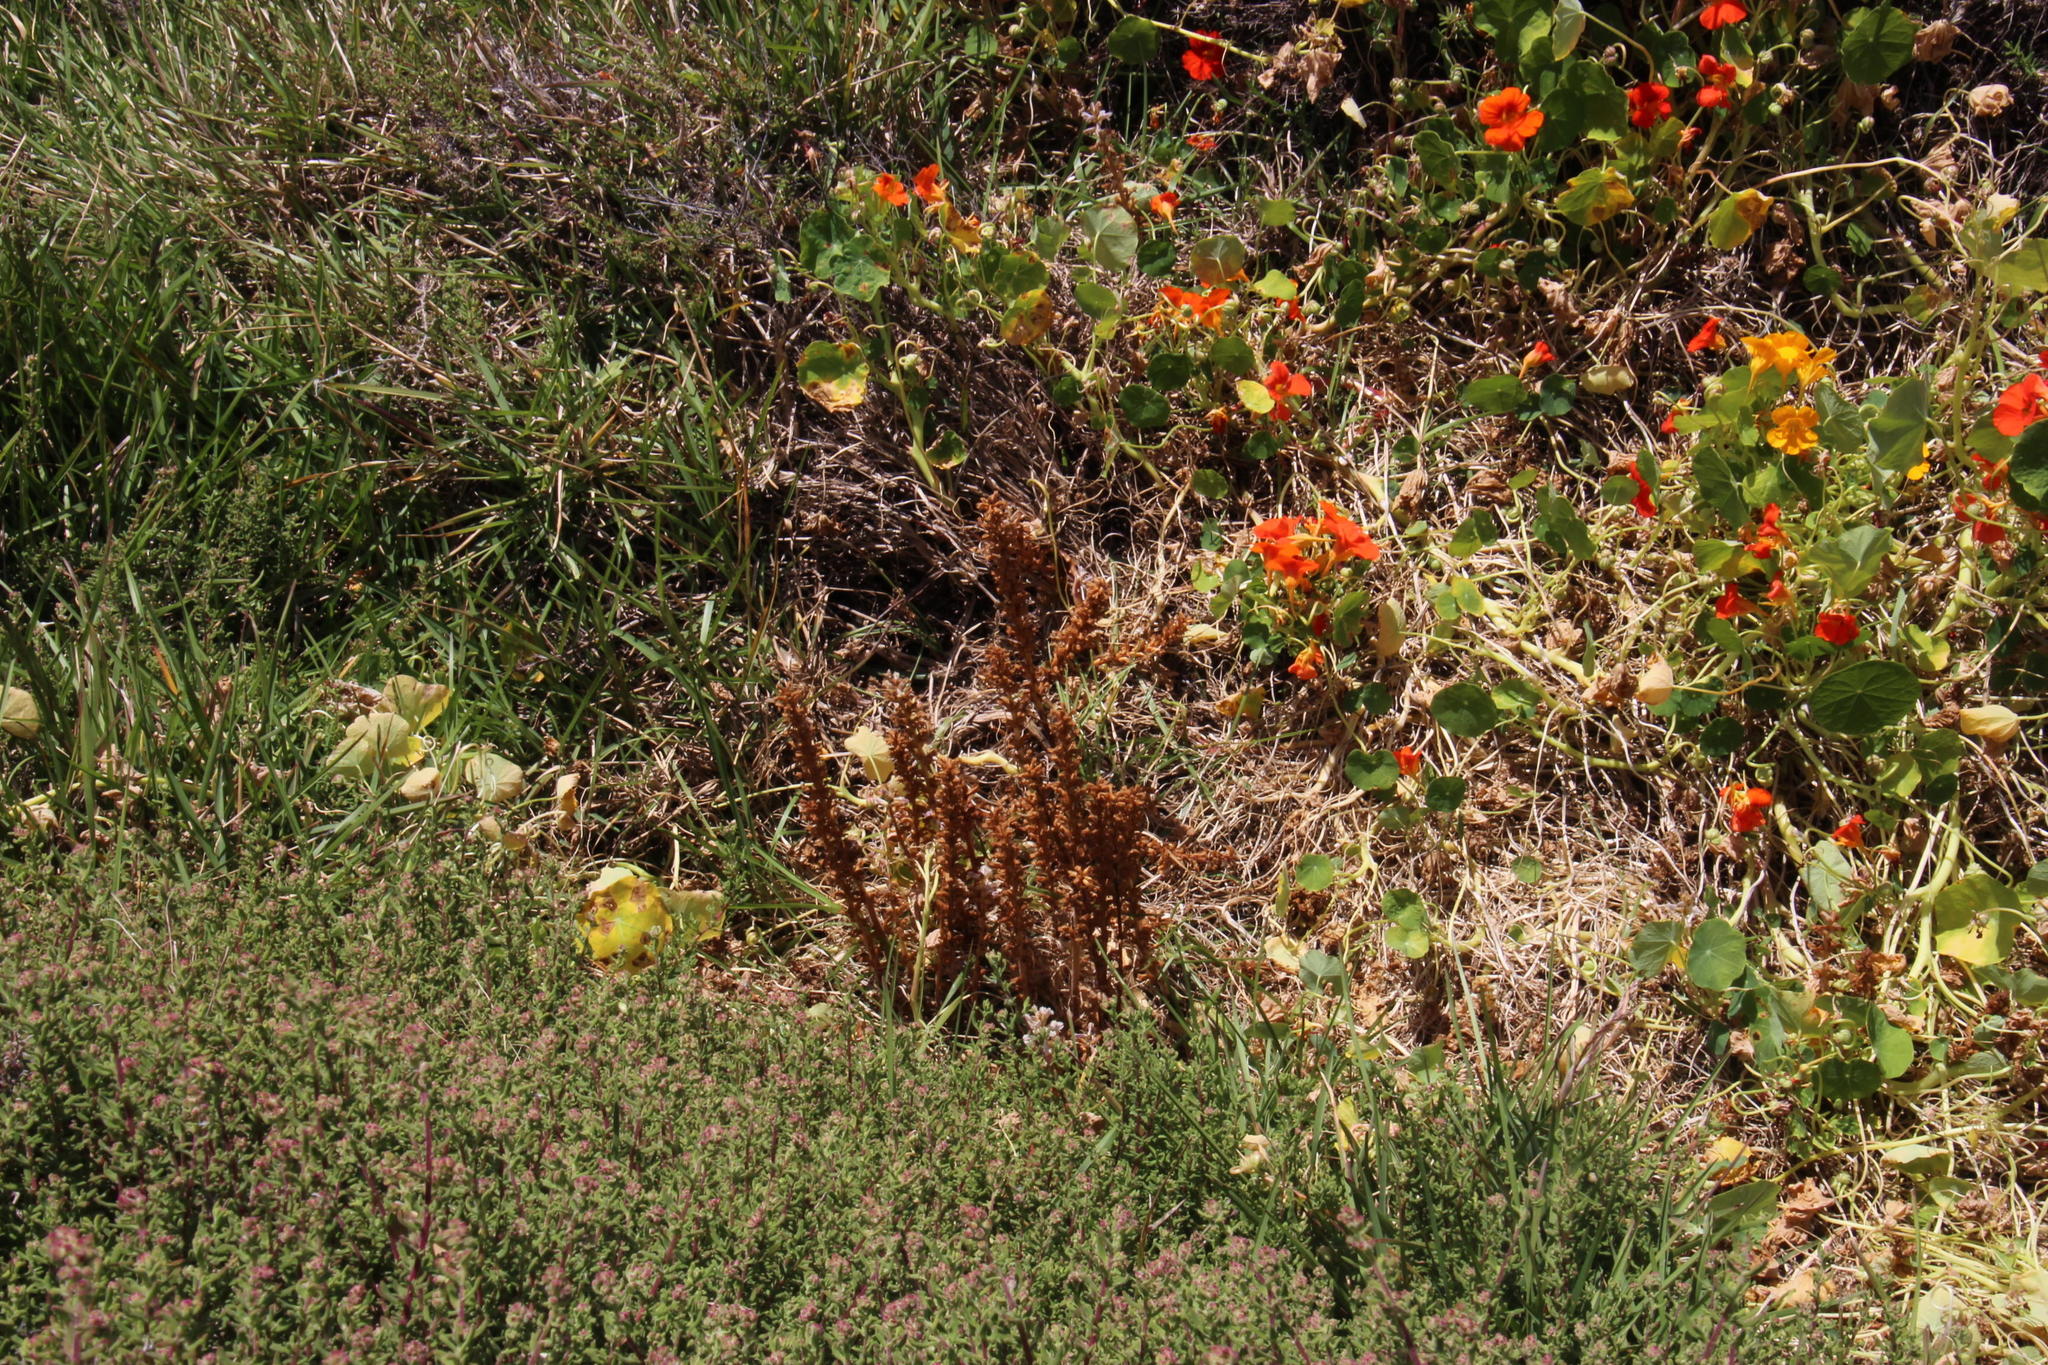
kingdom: Plantae
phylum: Tracheophyta
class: Magnoliopsida
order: Brassicales
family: Tropaeolaceae
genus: Tropaeolum
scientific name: Tropaeolum majus
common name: Nasturtium
